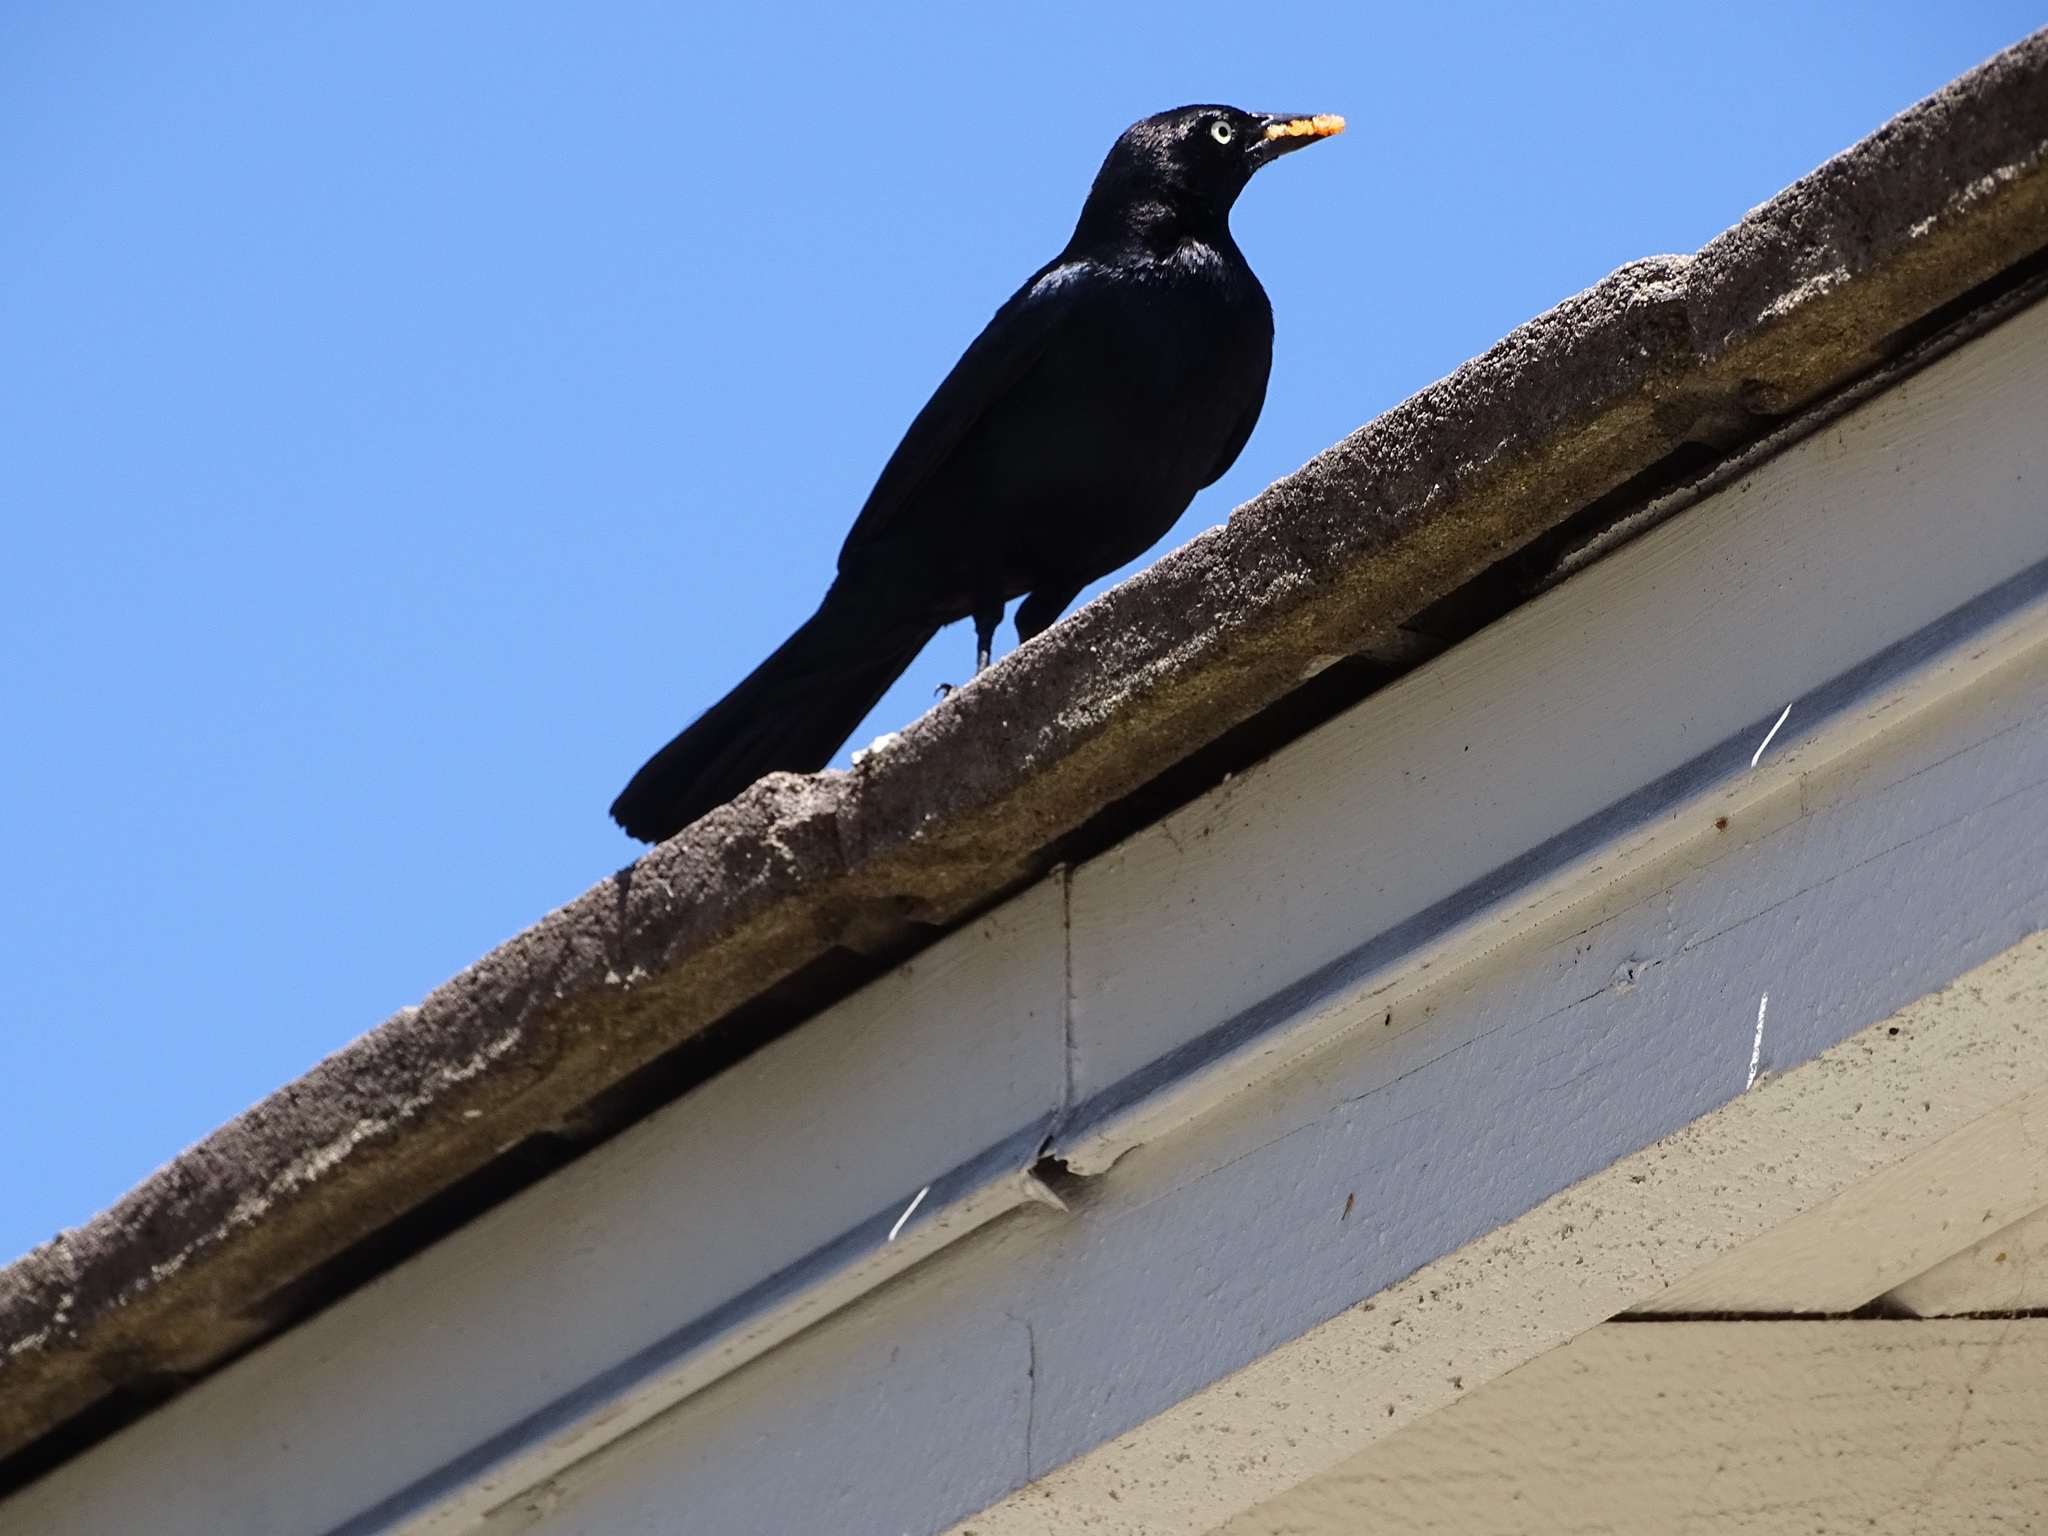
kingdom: Animalia
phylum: Chordata
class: Aves
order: Passeriformes
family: Icteridae
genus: Euphagus
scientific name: Euphagus cyanocephalus
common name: Brewer's blackbird
